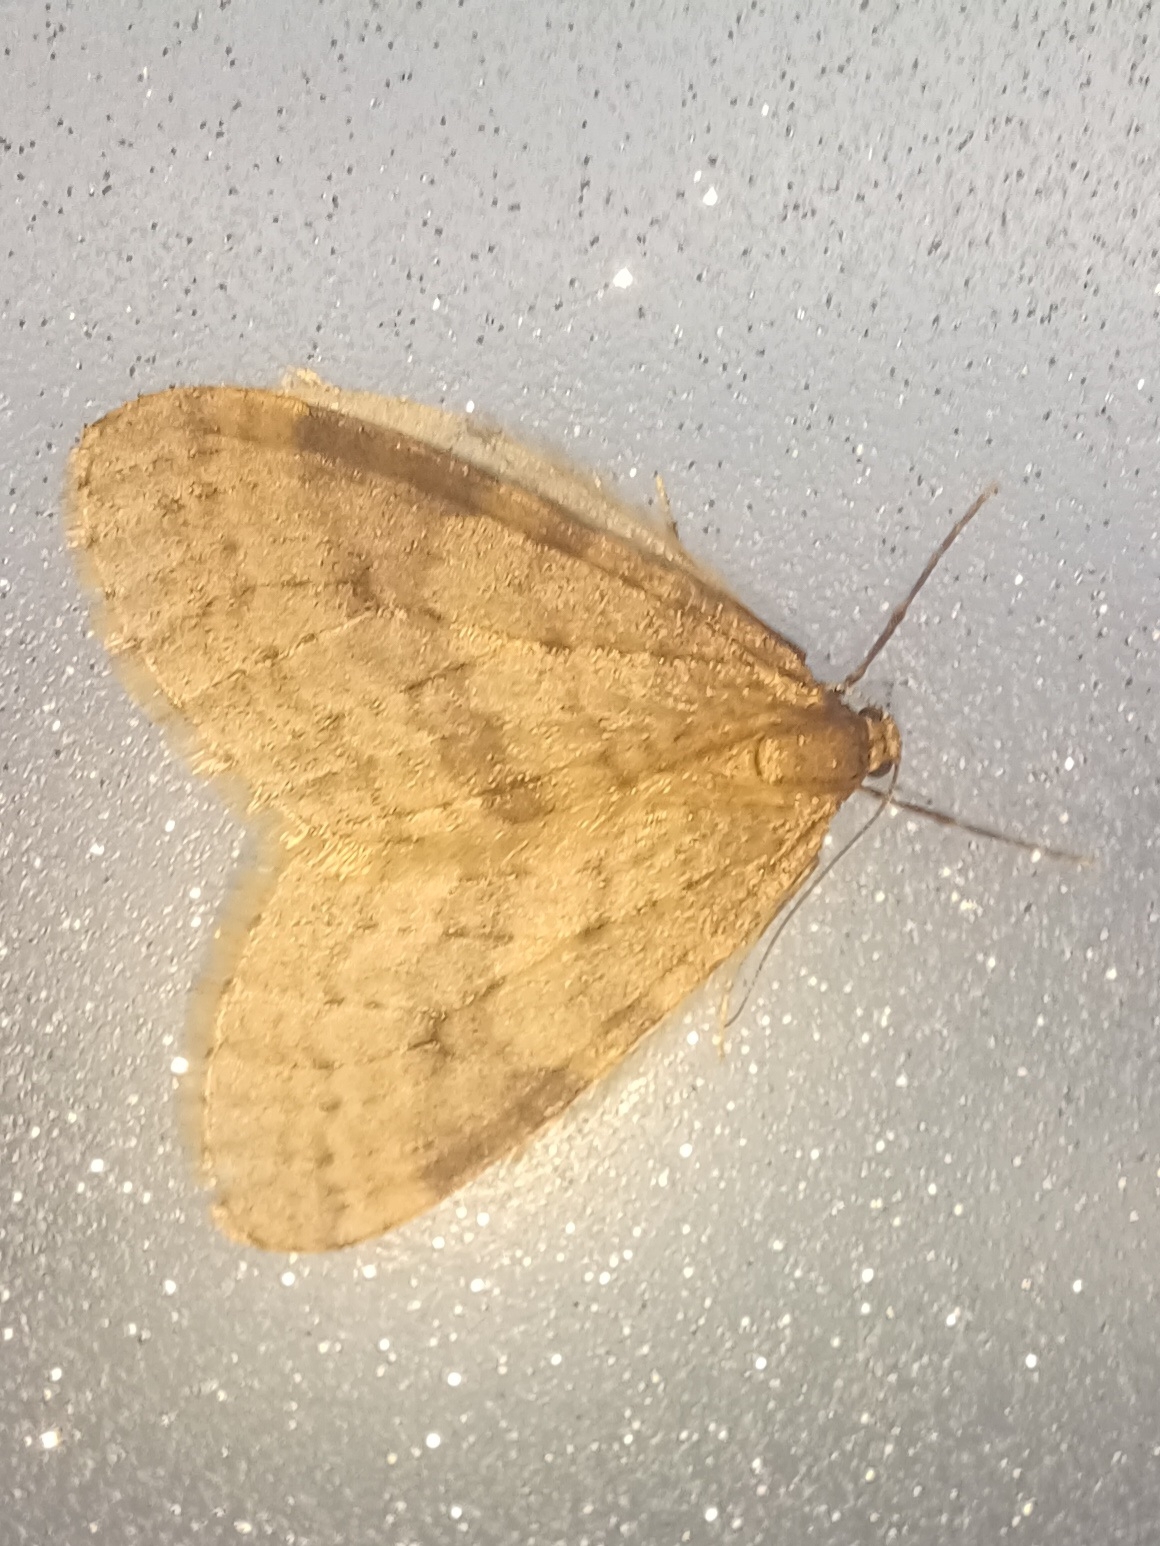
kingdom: Animalia
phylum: Arthropoda
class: Insecta
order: Lepidoptera
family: Geometridae
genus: Operophtera
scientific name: Operophtera bruceata
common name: Bruce spanworm
